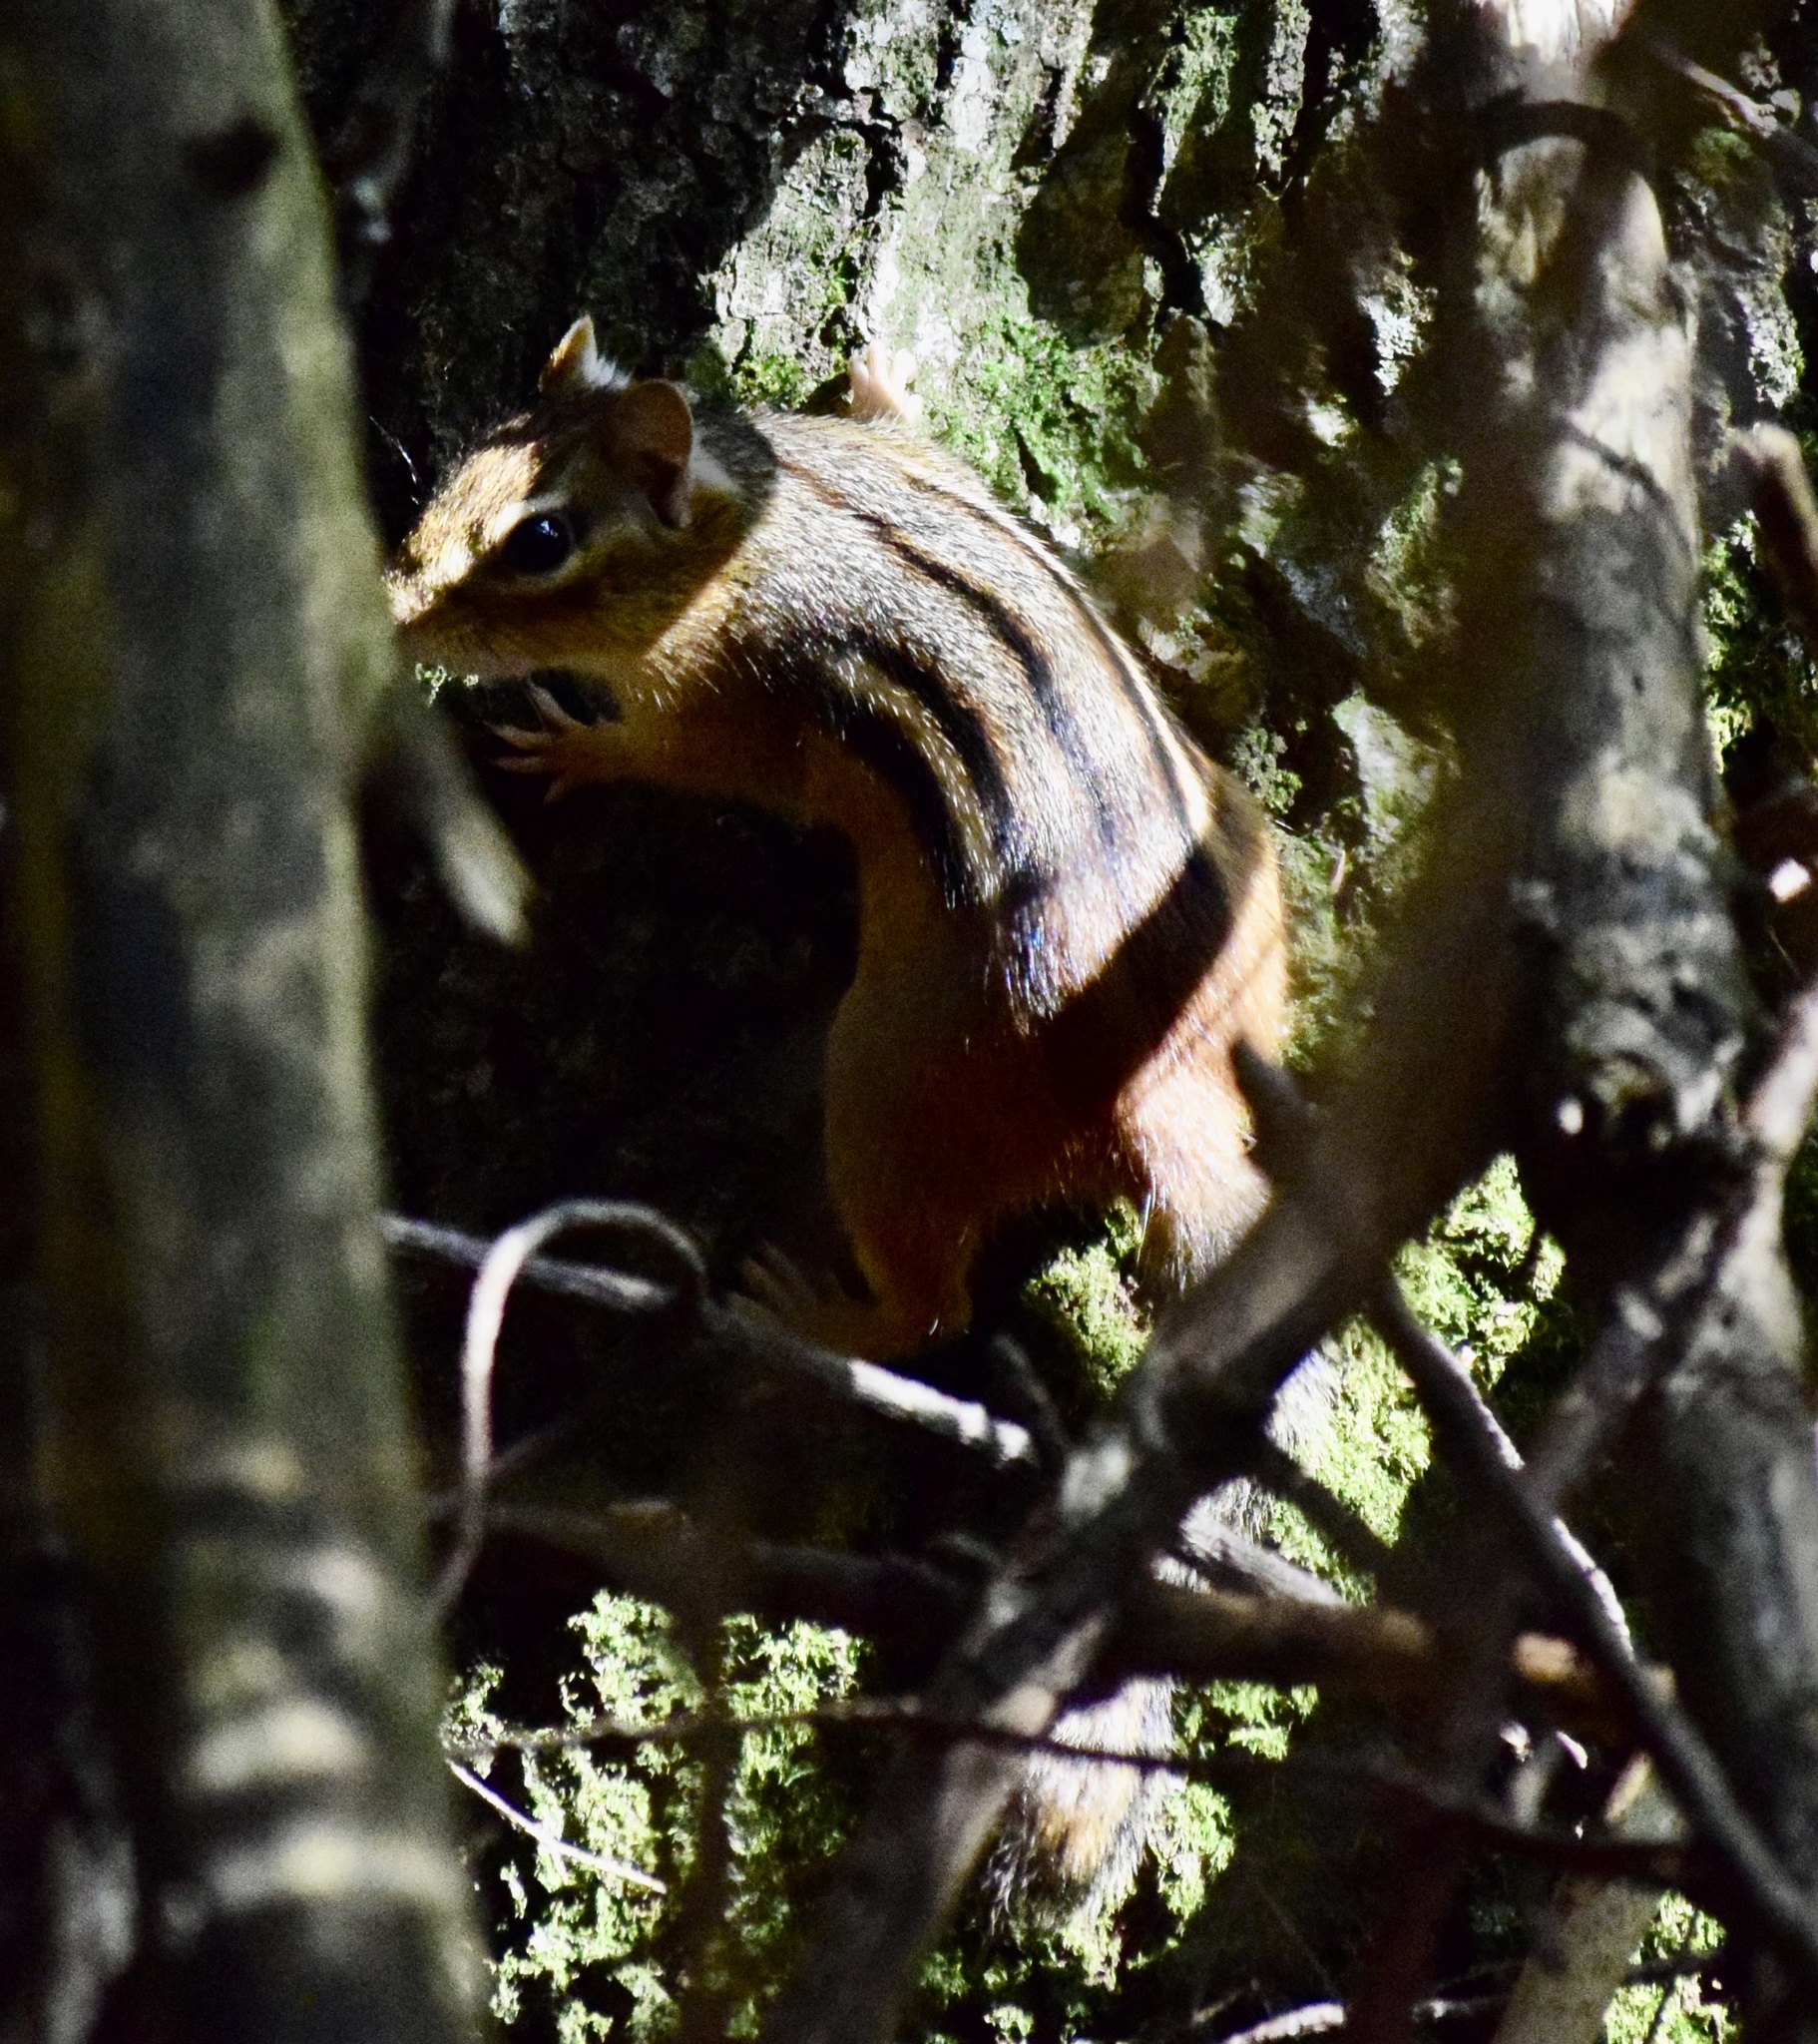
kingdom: Animalia
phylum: Chordata
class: Mammalia
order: Rodentia
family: Sciuridae
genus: Tamias
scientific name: Tamias striatus
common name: Eastern chipmunk
